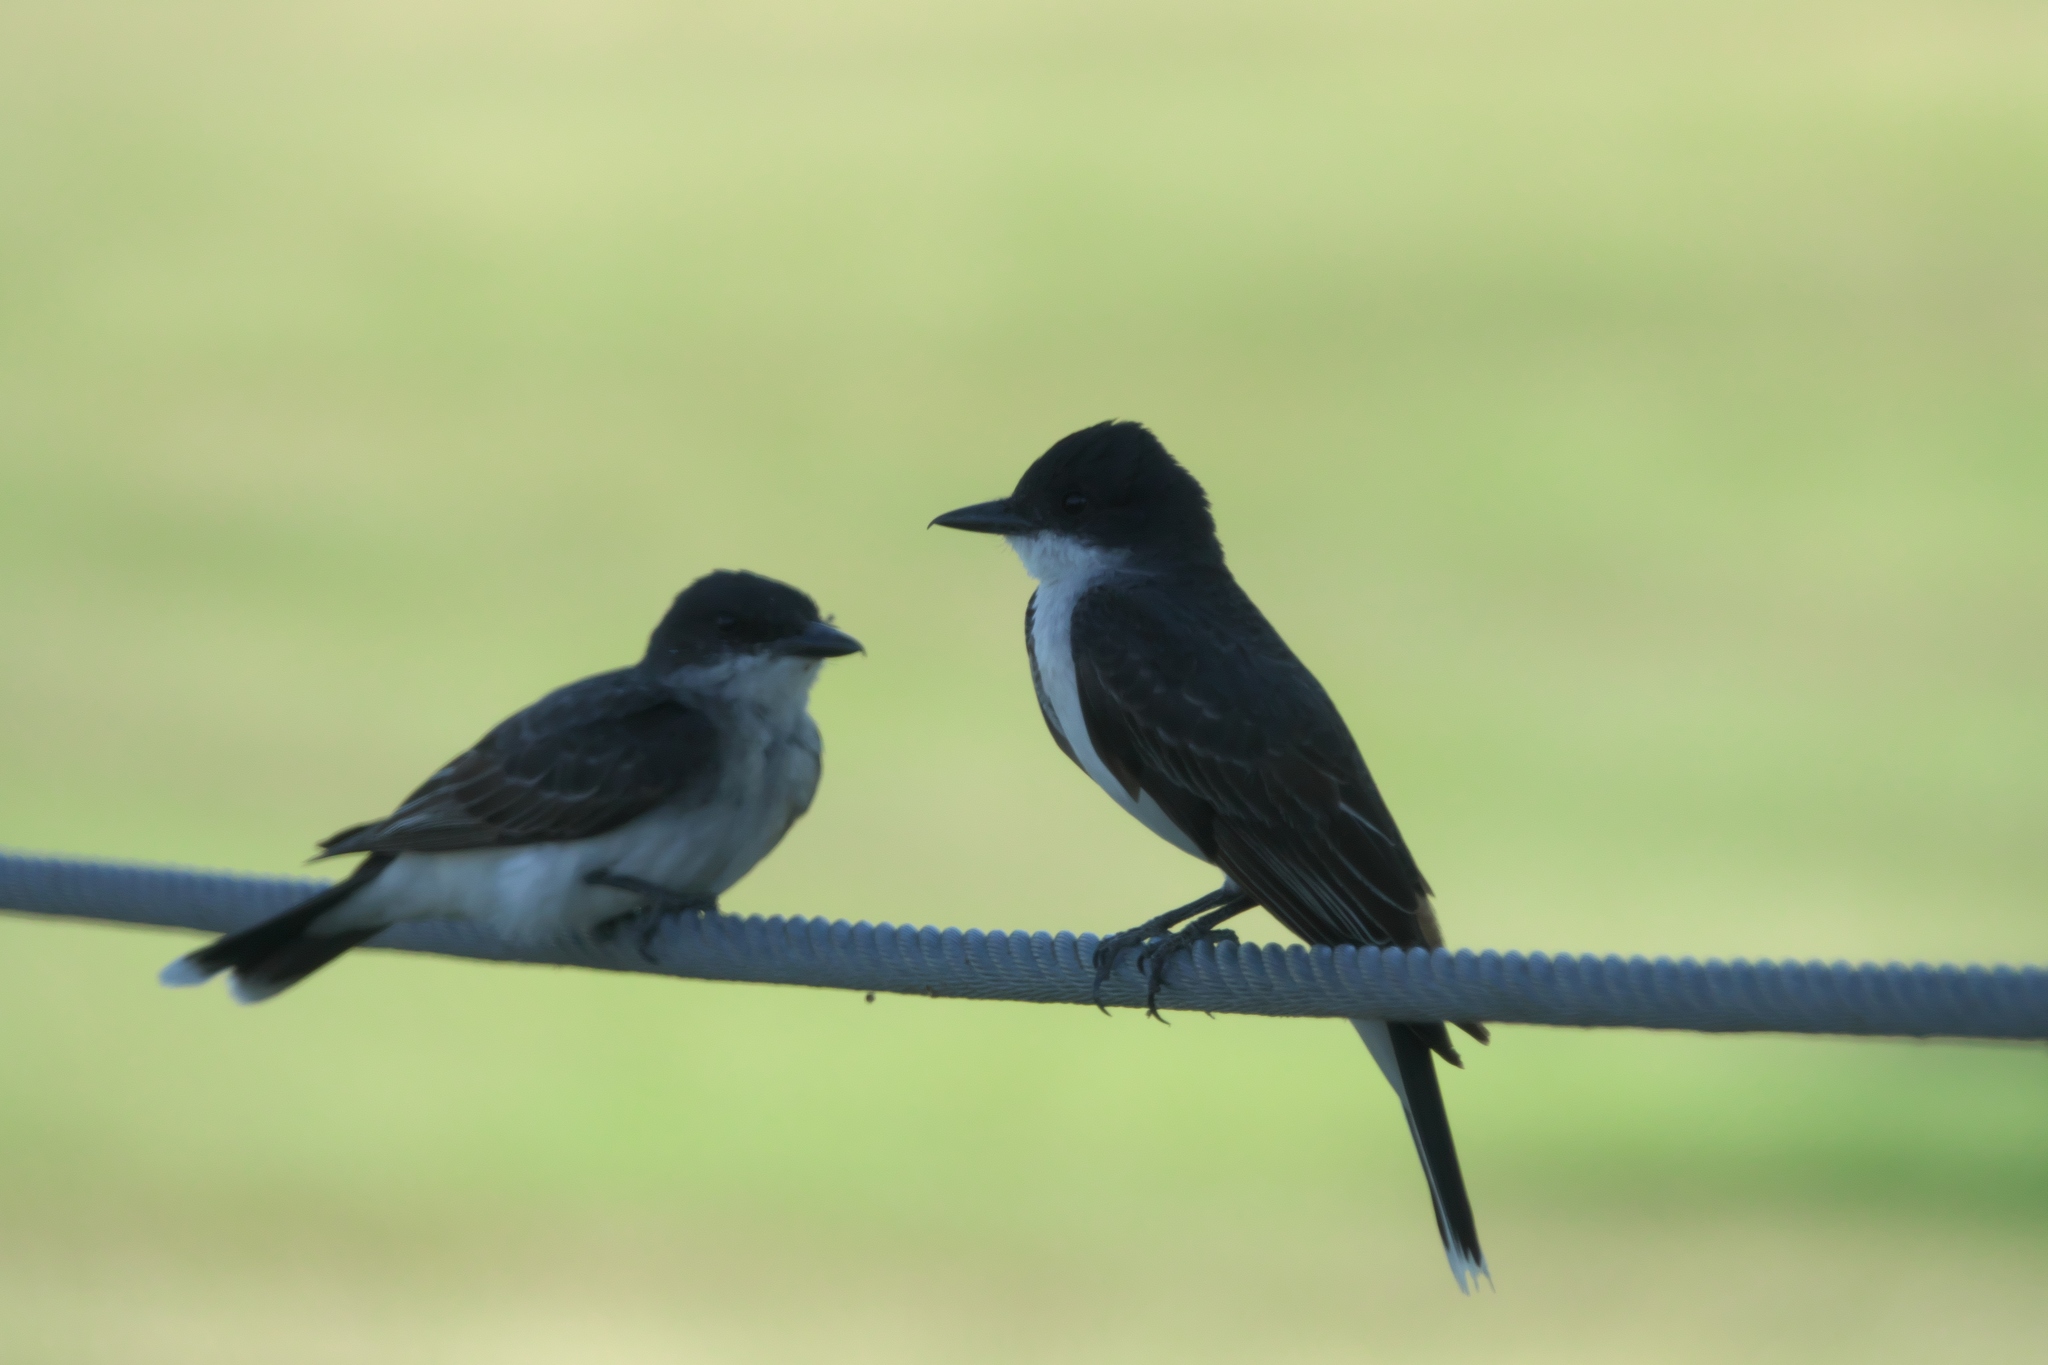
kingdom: Animalia
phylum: Chordata
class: Aves
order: Passeriformes
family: Tyrannidae
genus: Tyrannus
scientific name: Tyrannus tyrannus
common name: Eastern kingbird
